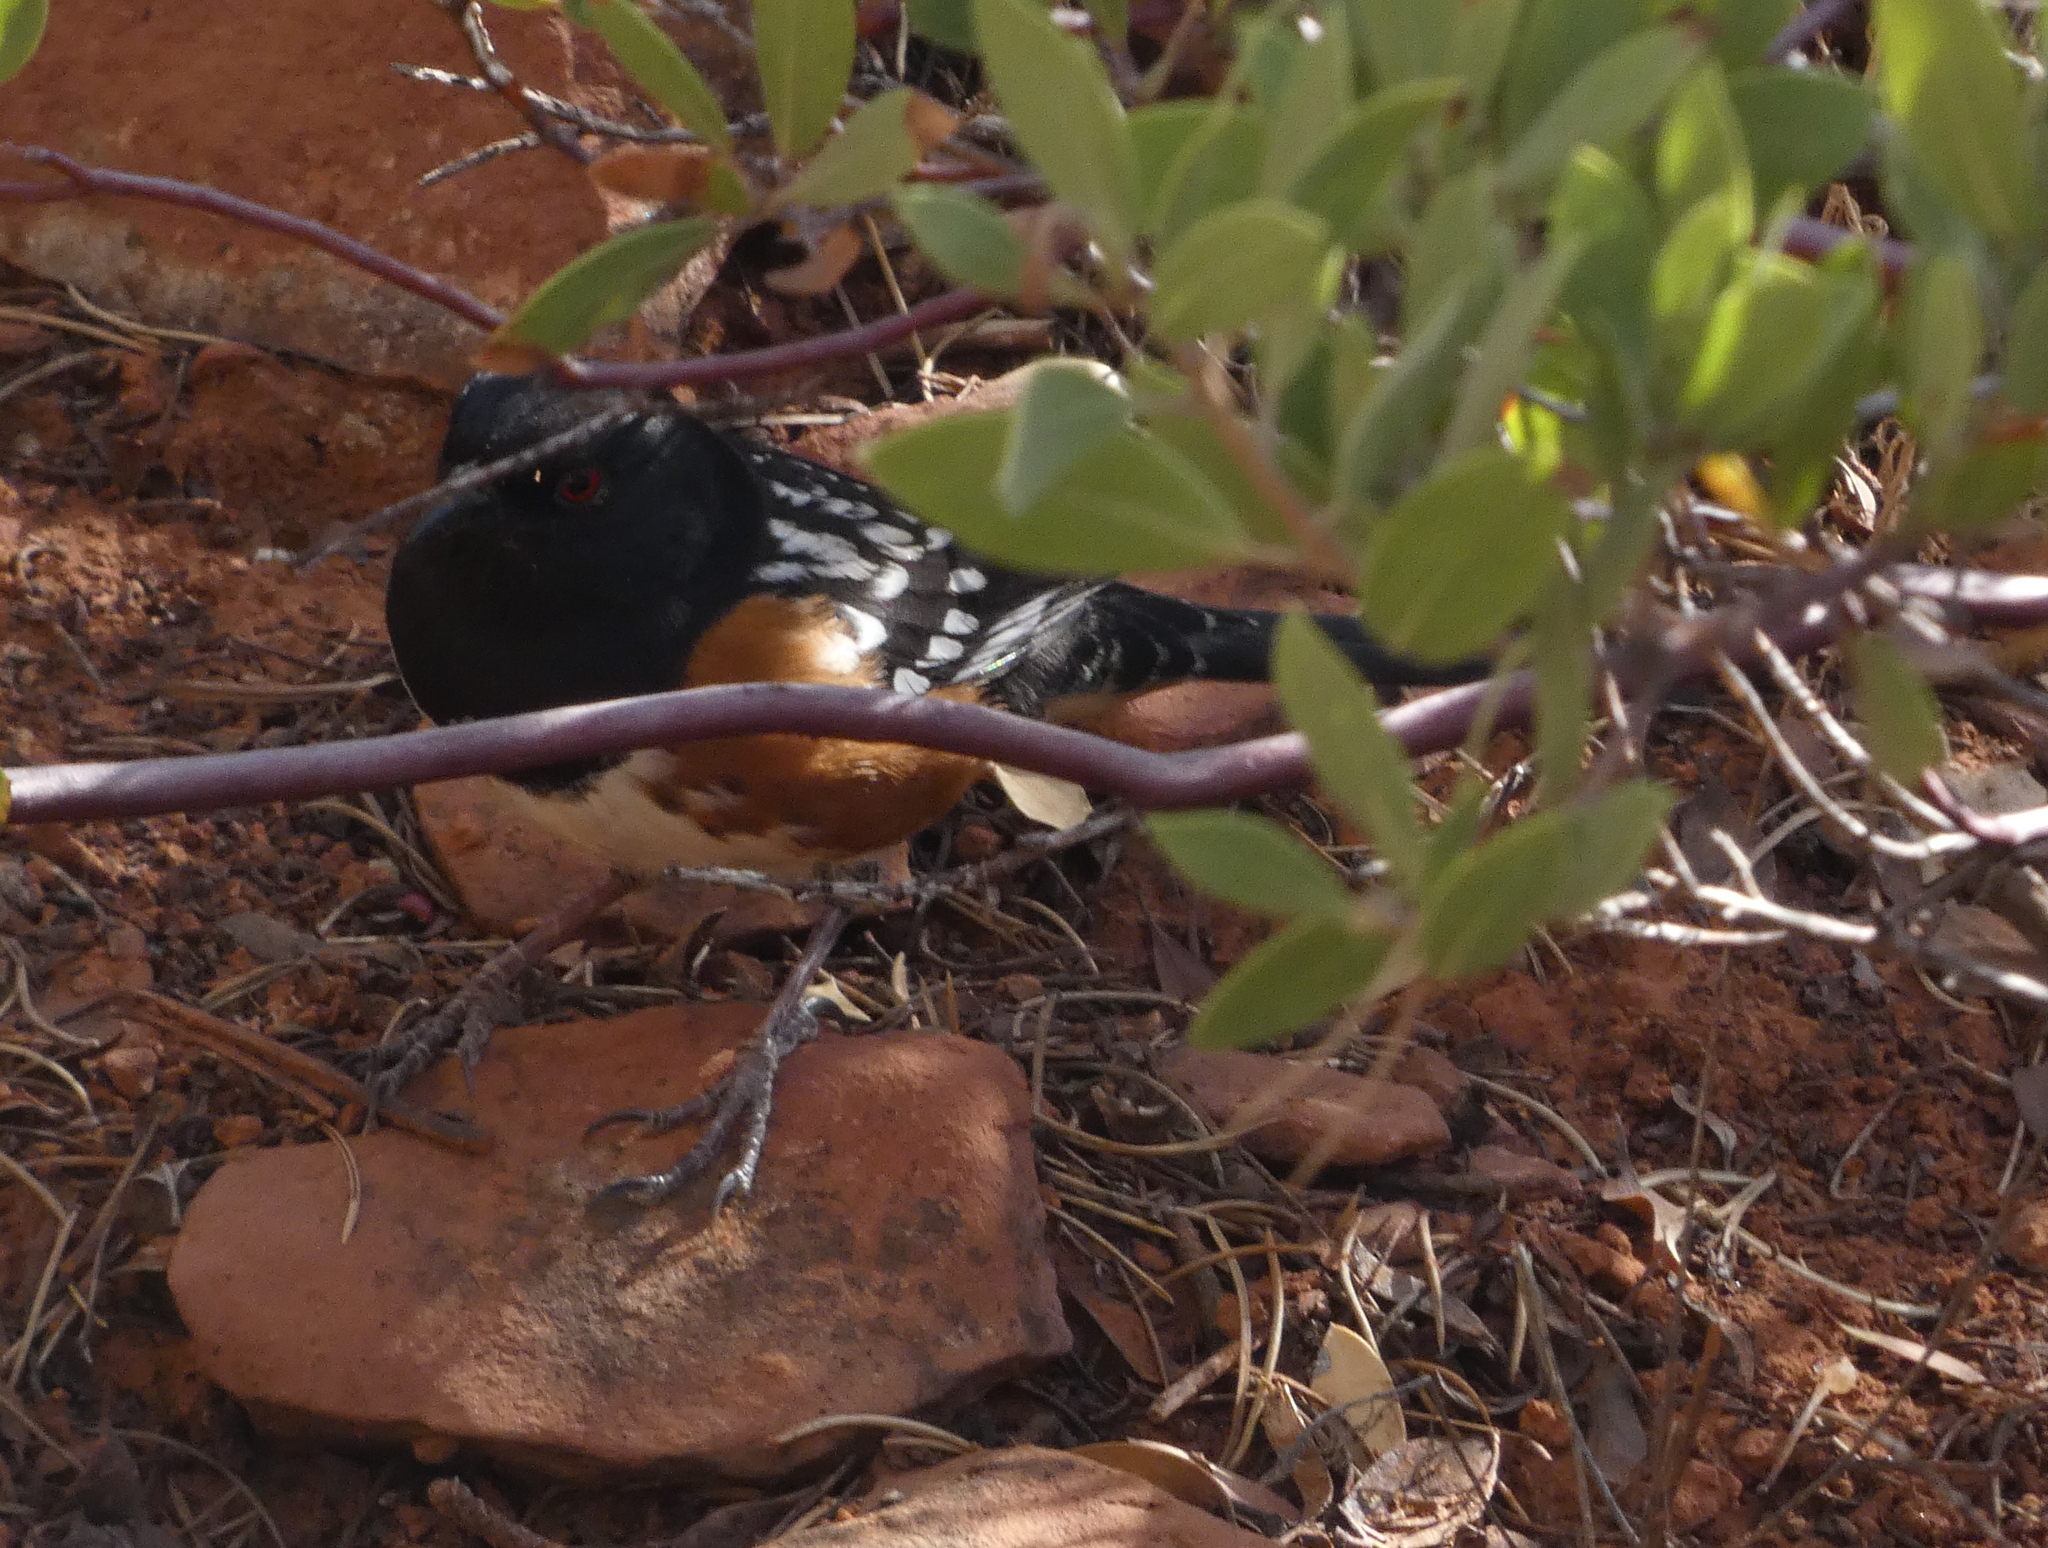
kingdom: Animalia
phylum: Chordata
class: Aves
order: Passeriformes
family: Passerellidae
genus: Pipilo
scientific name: Pipilo maculatus
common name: Spotted towhee
